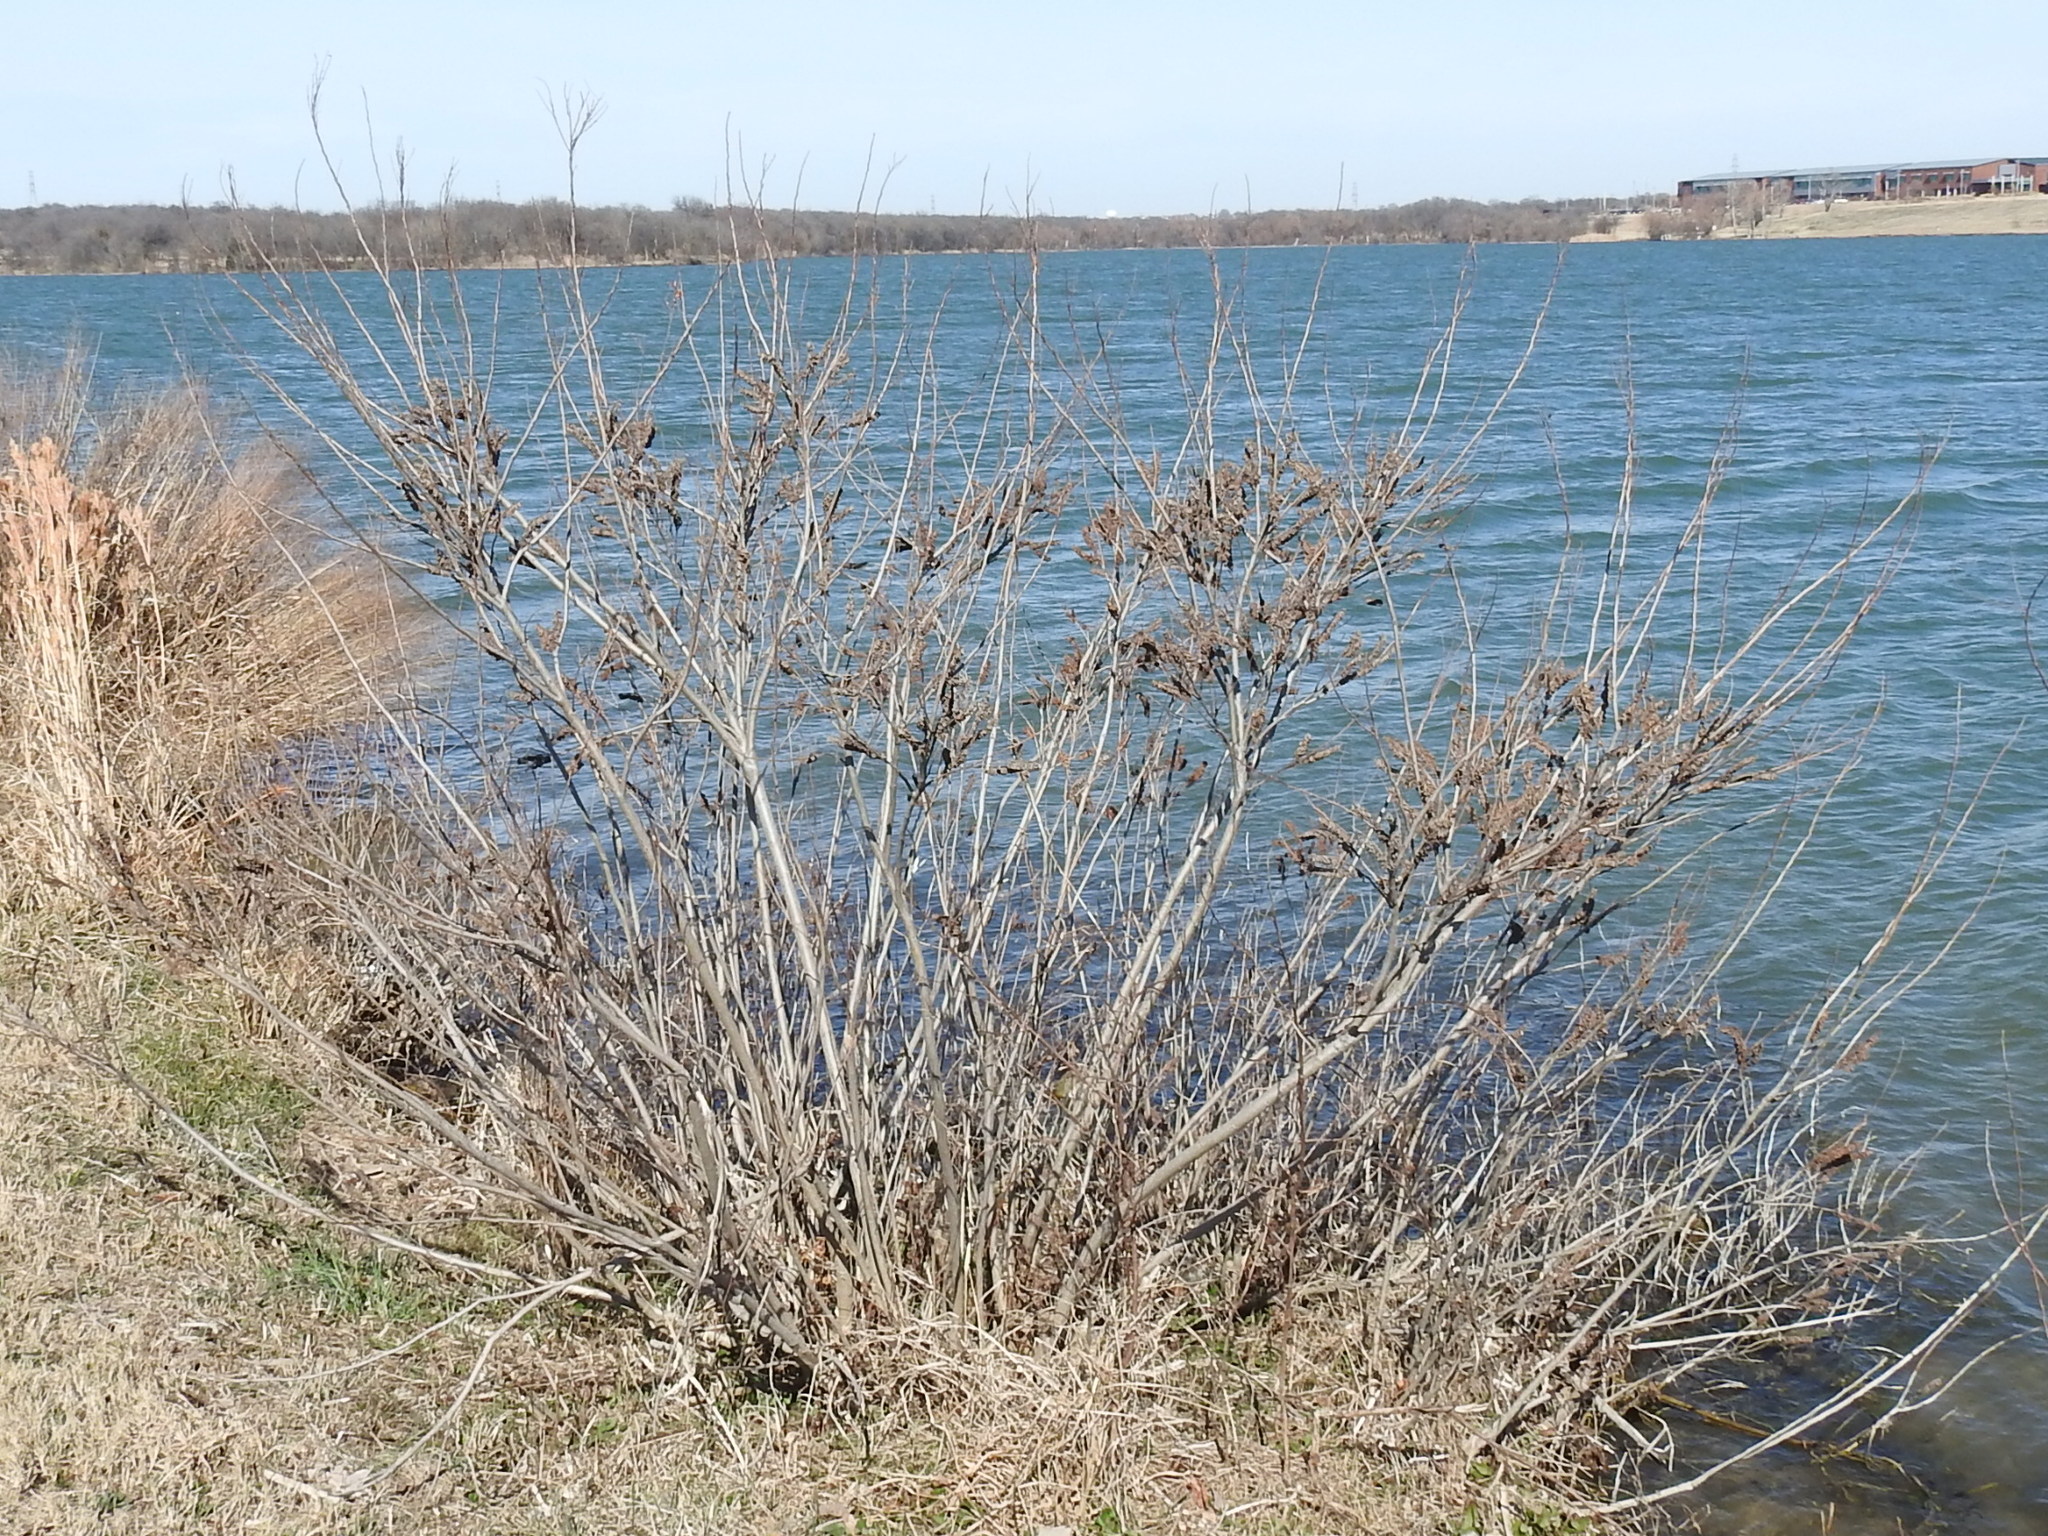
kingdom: Plantae
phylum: Tracheophyta
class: Magnoliopsida
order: Fabales
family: Fabaceae
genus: Amorpha
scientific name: Amorpha fruticosa
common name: False indigo
